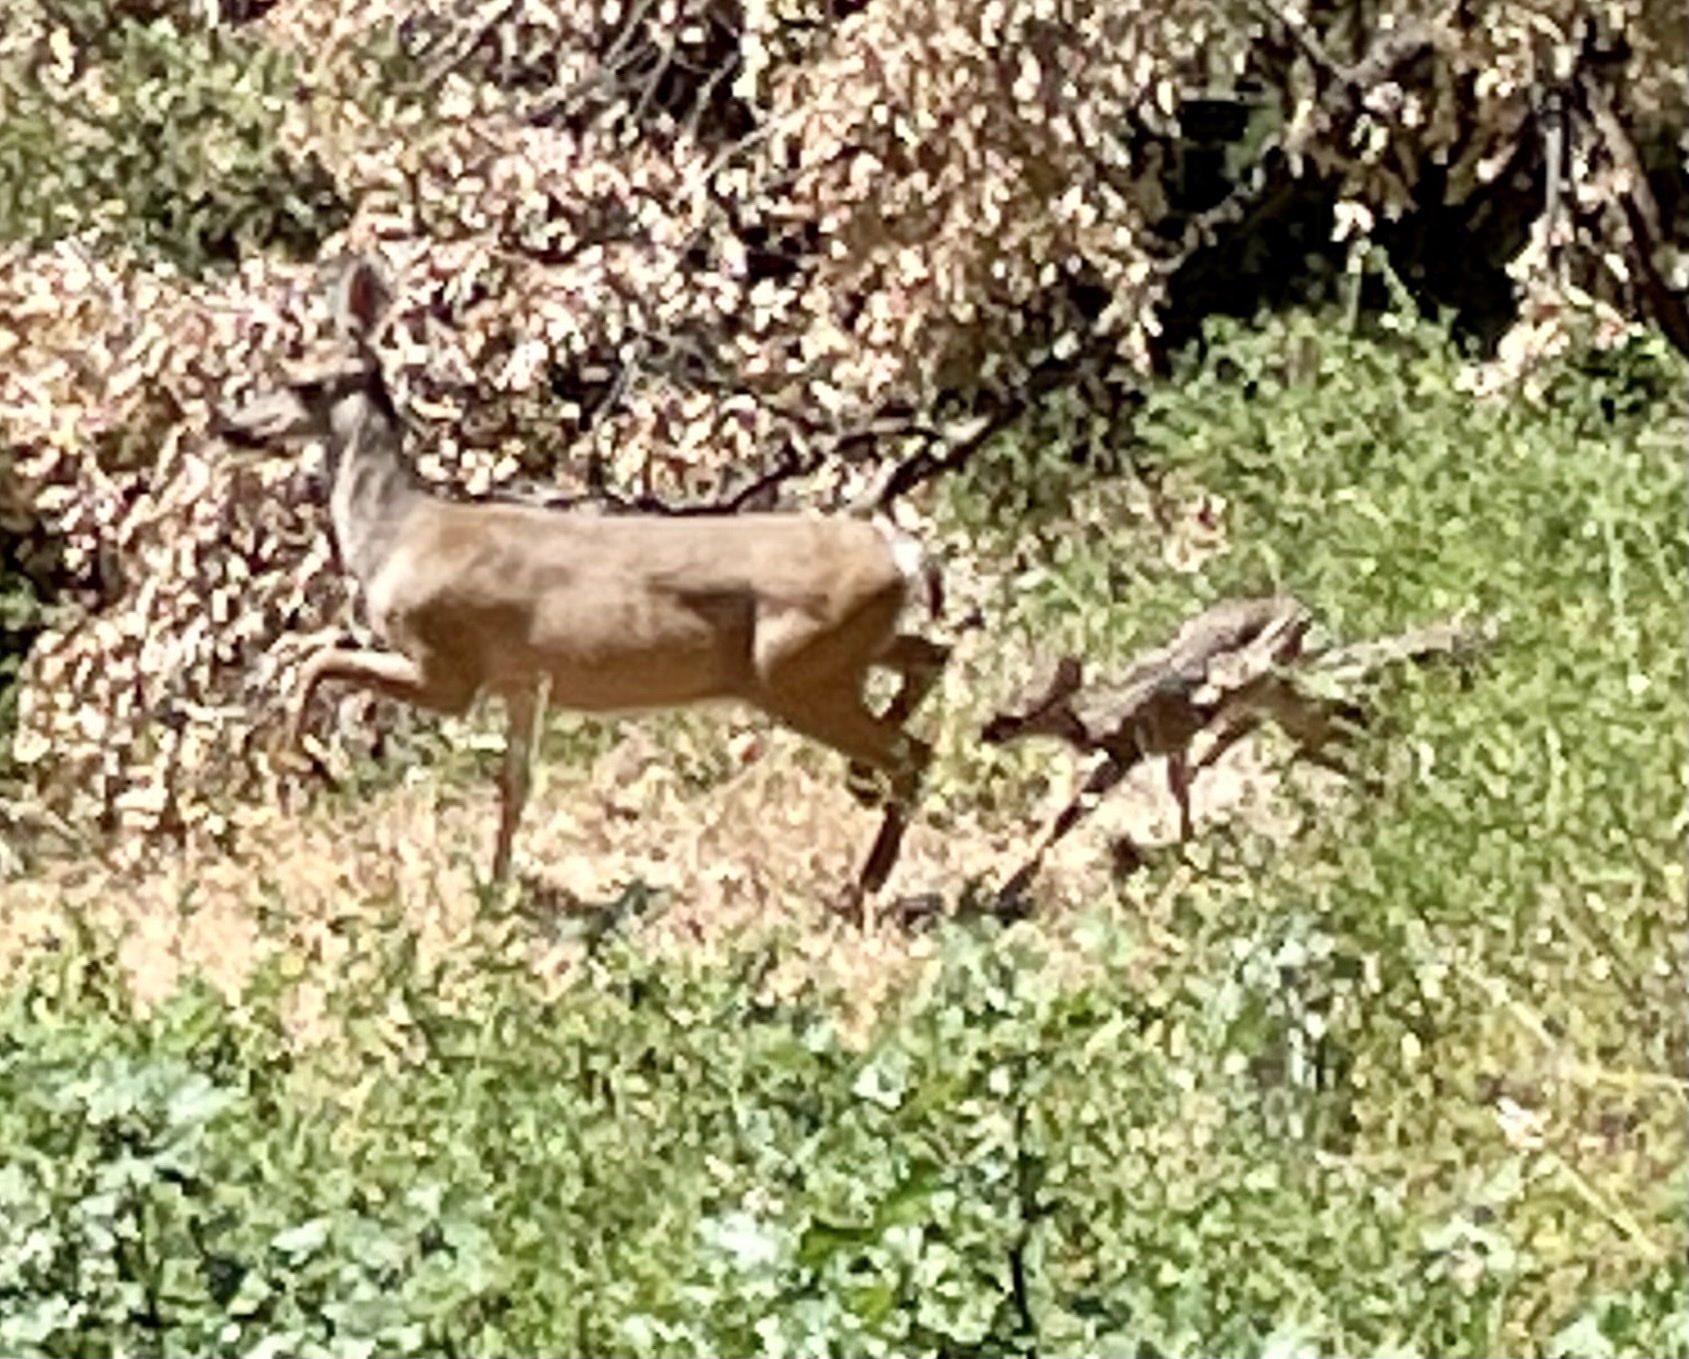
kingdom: Animalia
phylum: Chordata
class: Mammalia
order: Artiodactyla
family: Cervidae
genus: Odocoileus
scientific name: Odocoileus hemionus
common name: Mule deer
